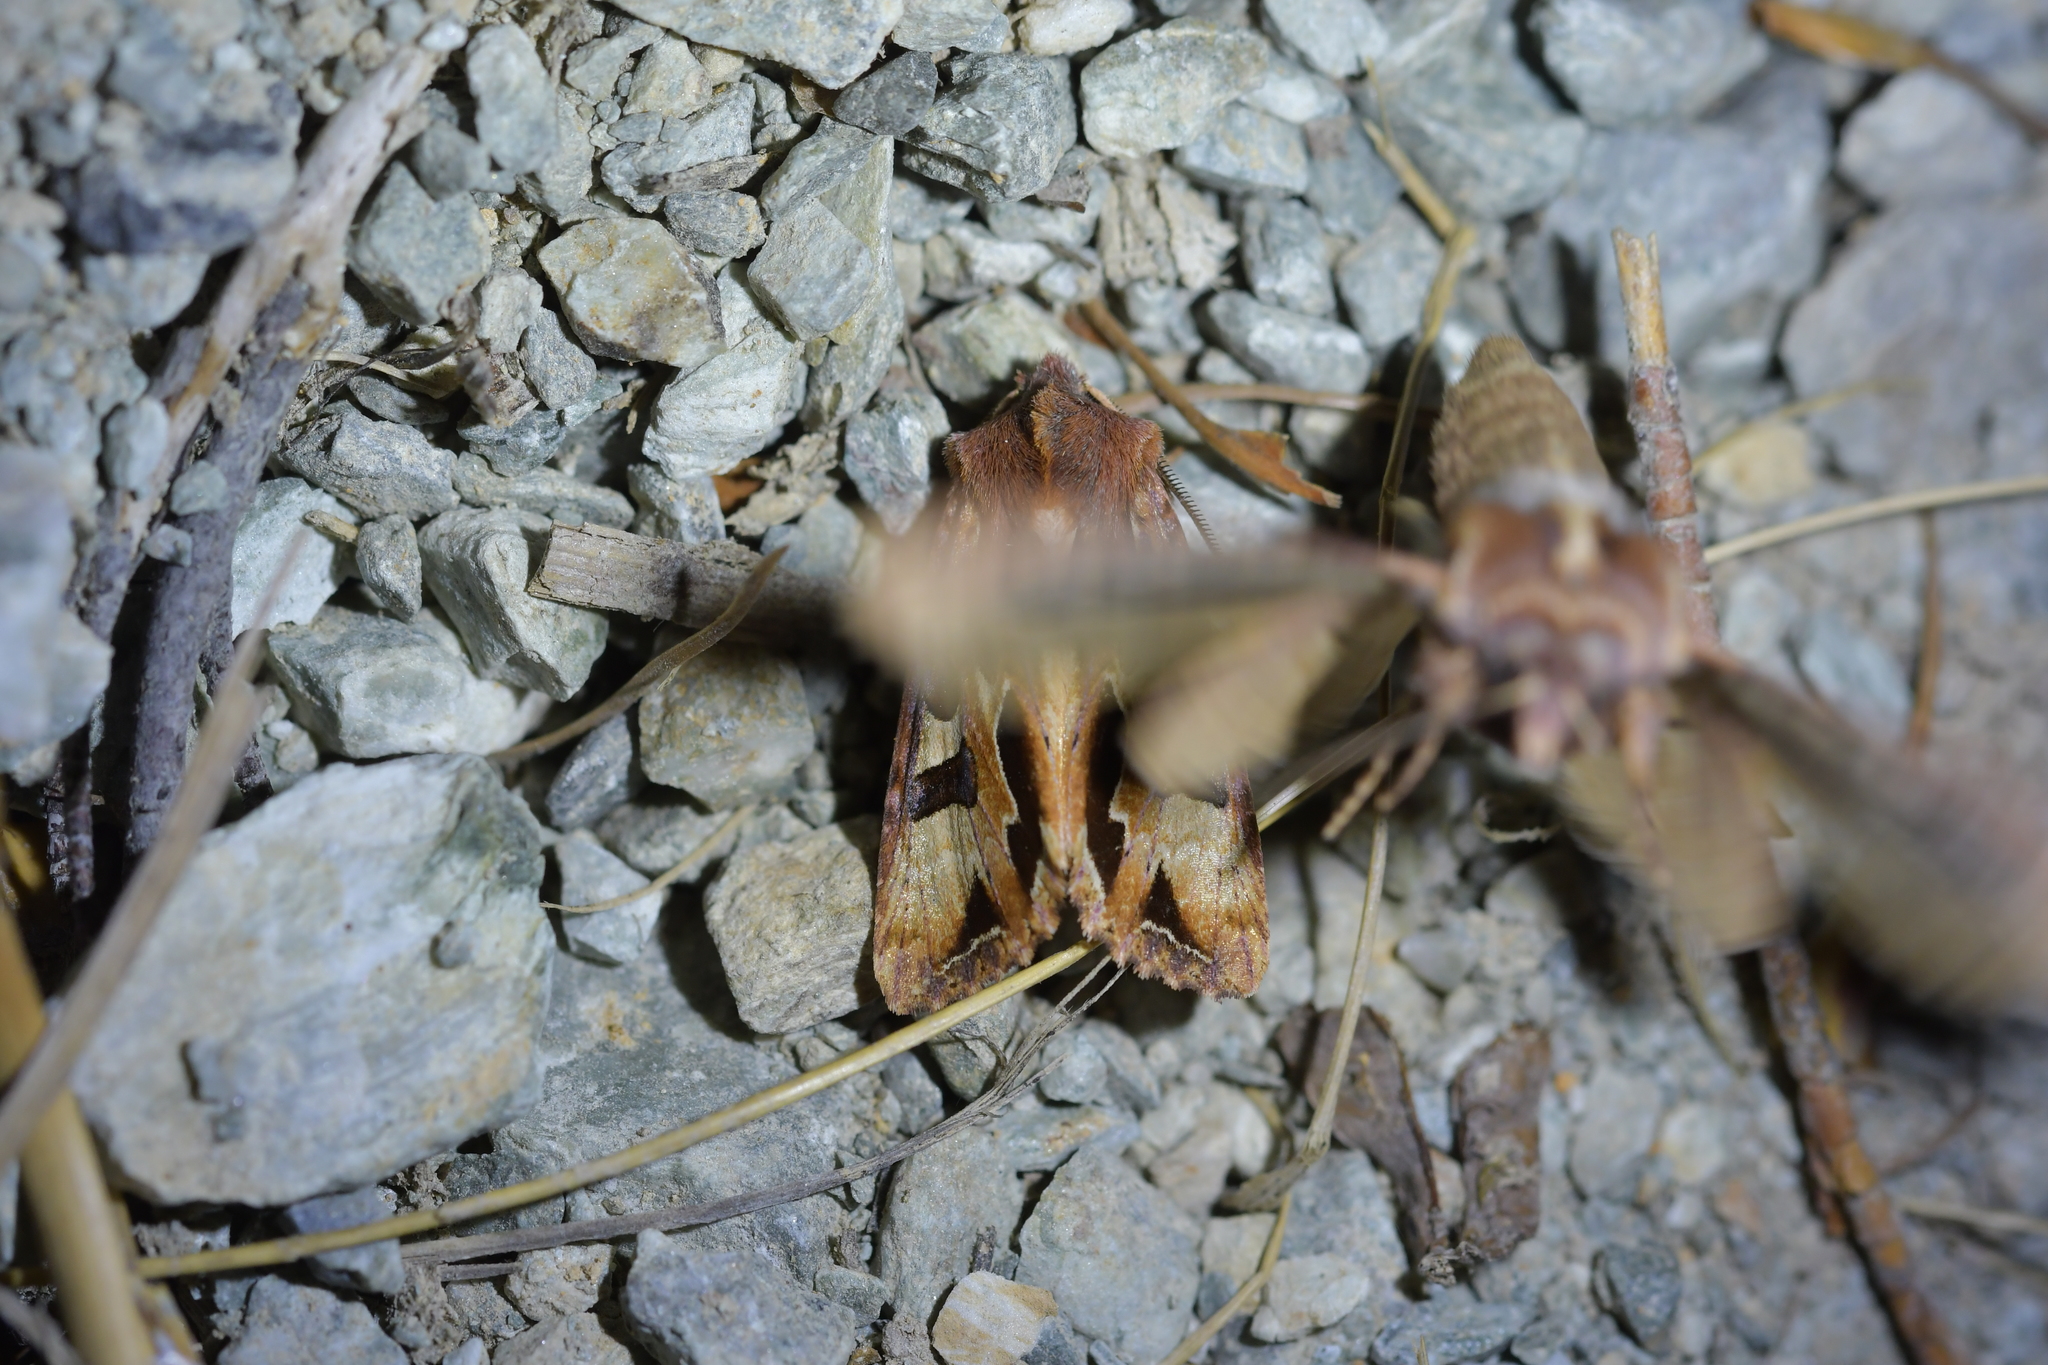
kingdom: Animalia
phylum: Arthropoda
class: Insecta
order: Lepidoptera
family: Noctuidae
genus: Ichneutica
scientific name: Ichneutica
